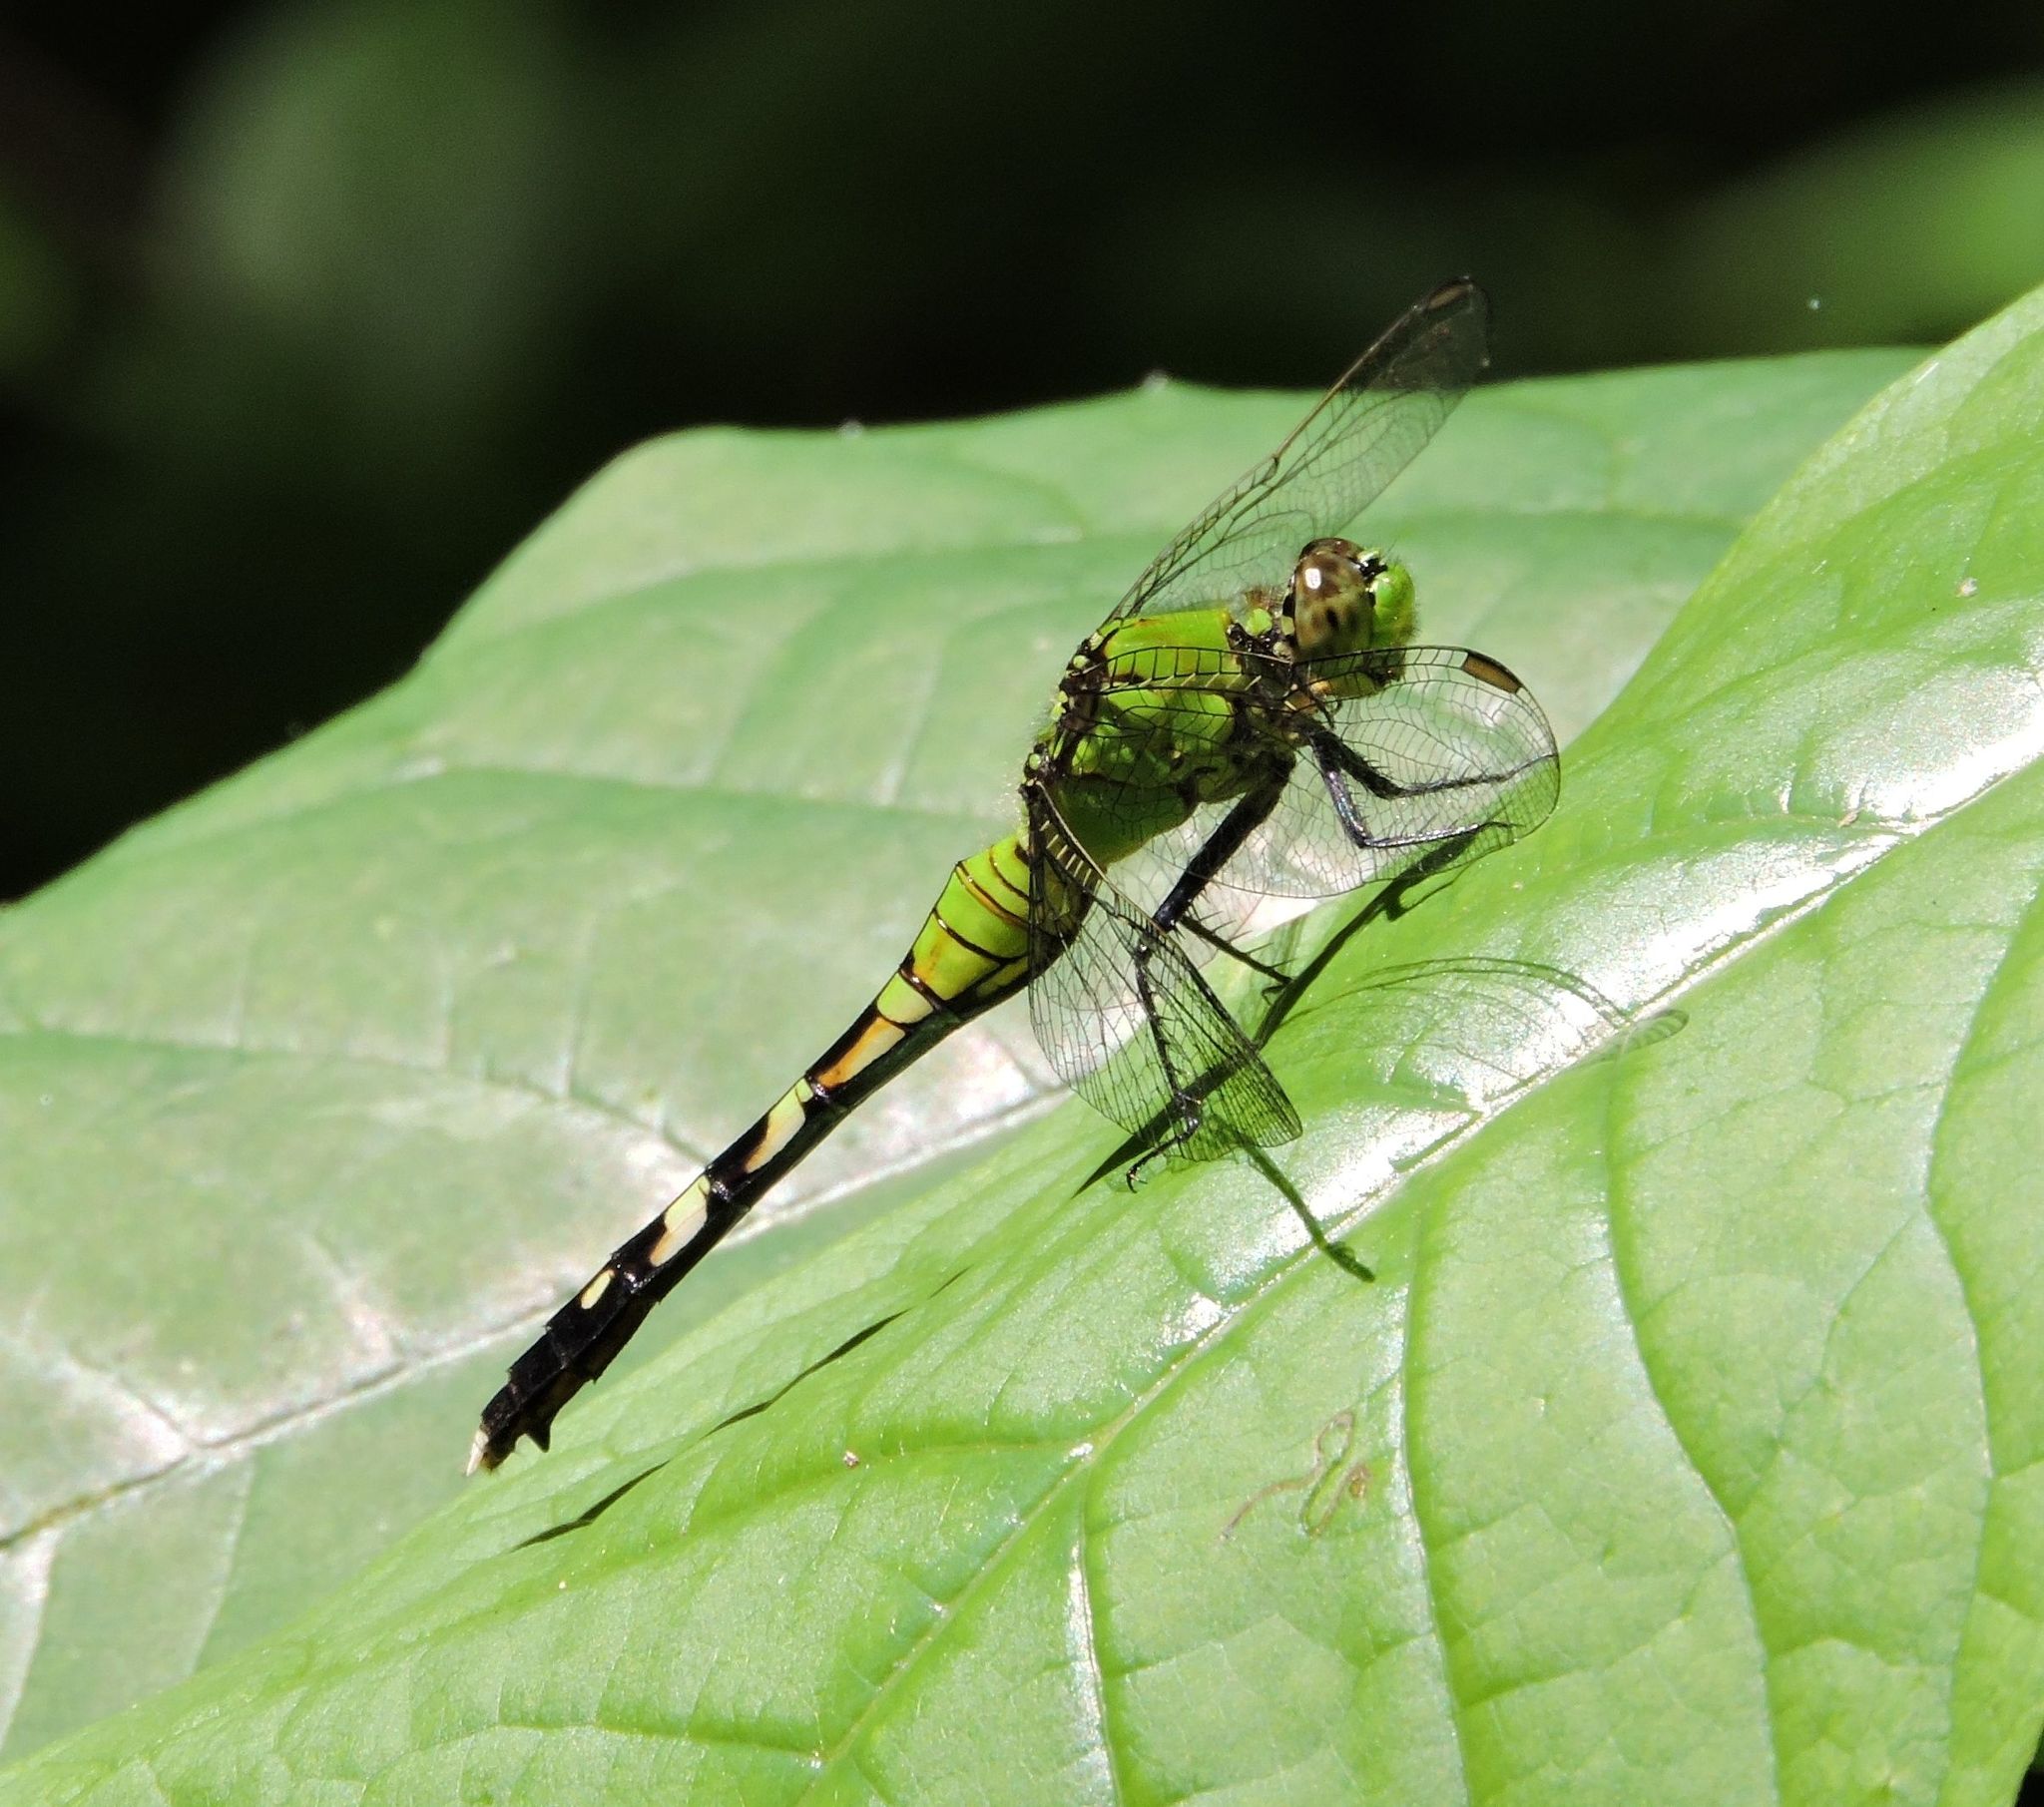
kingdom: Animalia
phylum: Arthropoda
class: Insecta
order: Odonata
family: Libellulidae
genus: Erythemis
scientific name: Erythemis simplicicollis
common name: Eastern pondhawk
